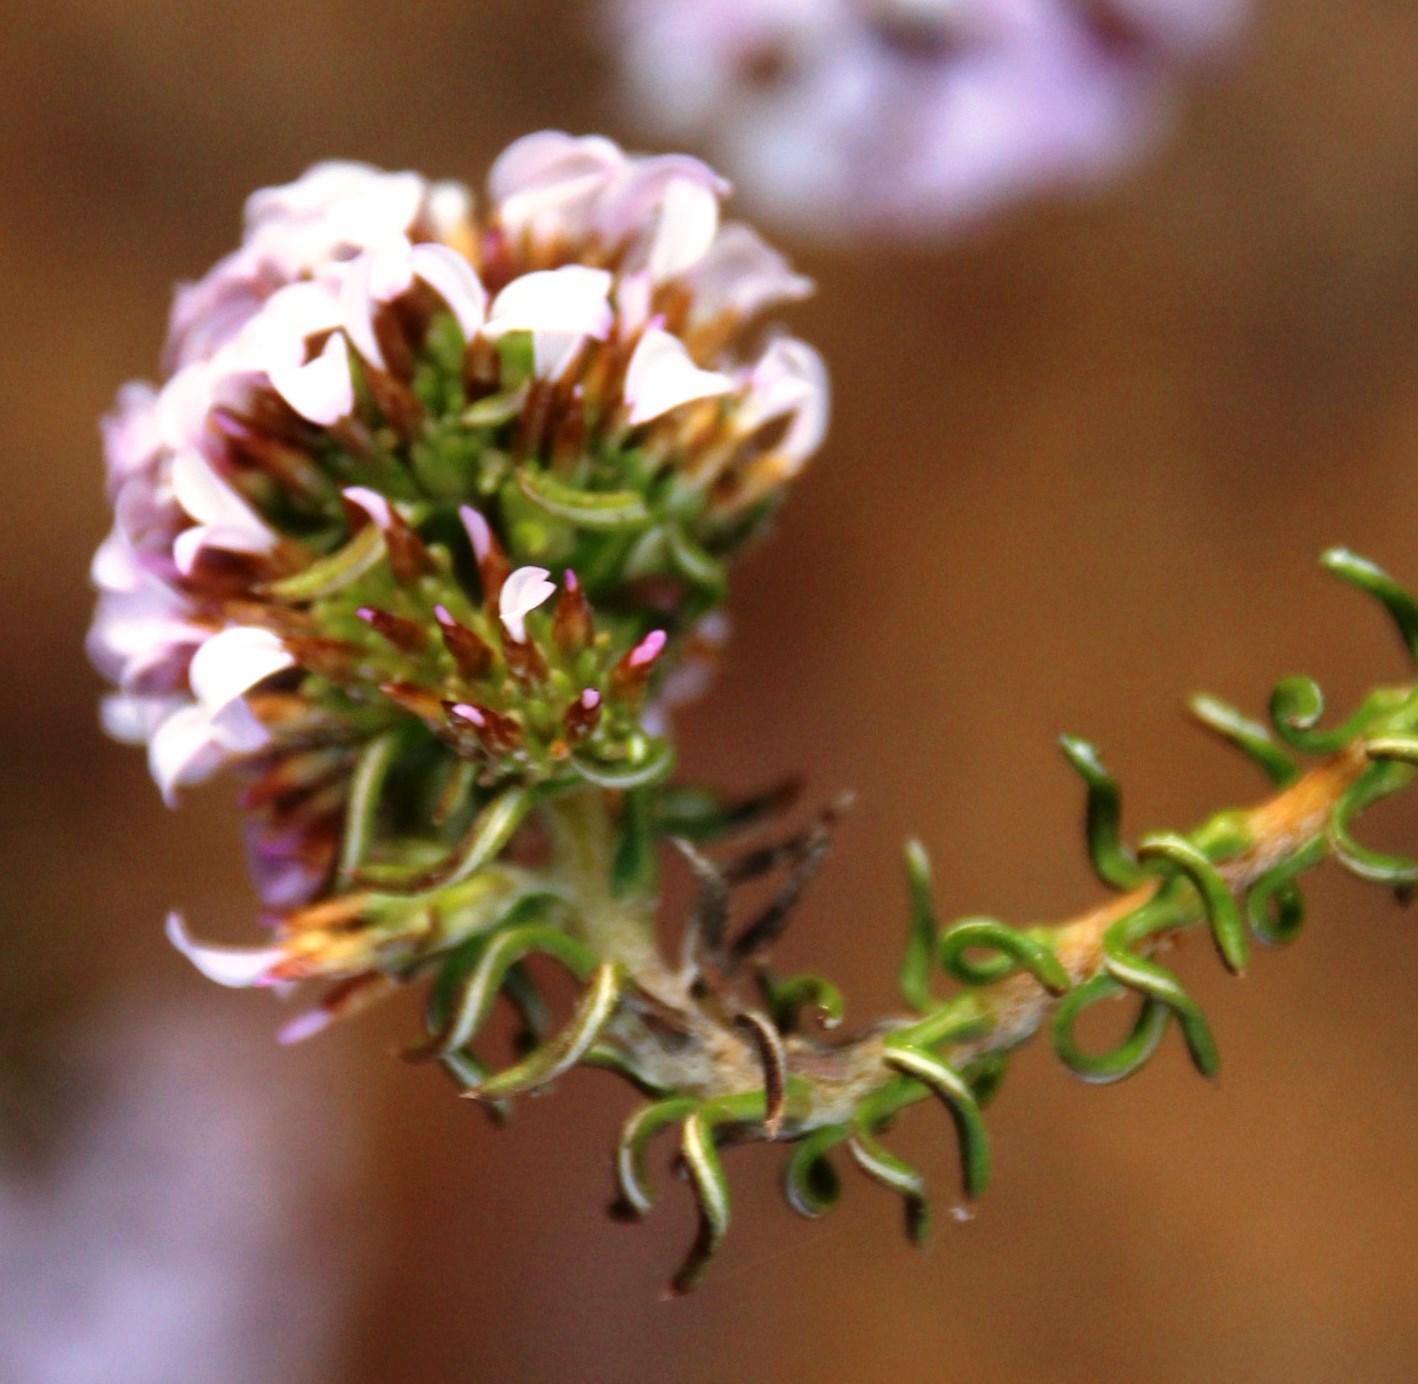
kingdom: Plantae
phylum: Tracheophyta
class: Magnoliopsida
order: Asterales
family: Asteraceae
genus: Disparago
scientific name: Disparago ericoides
